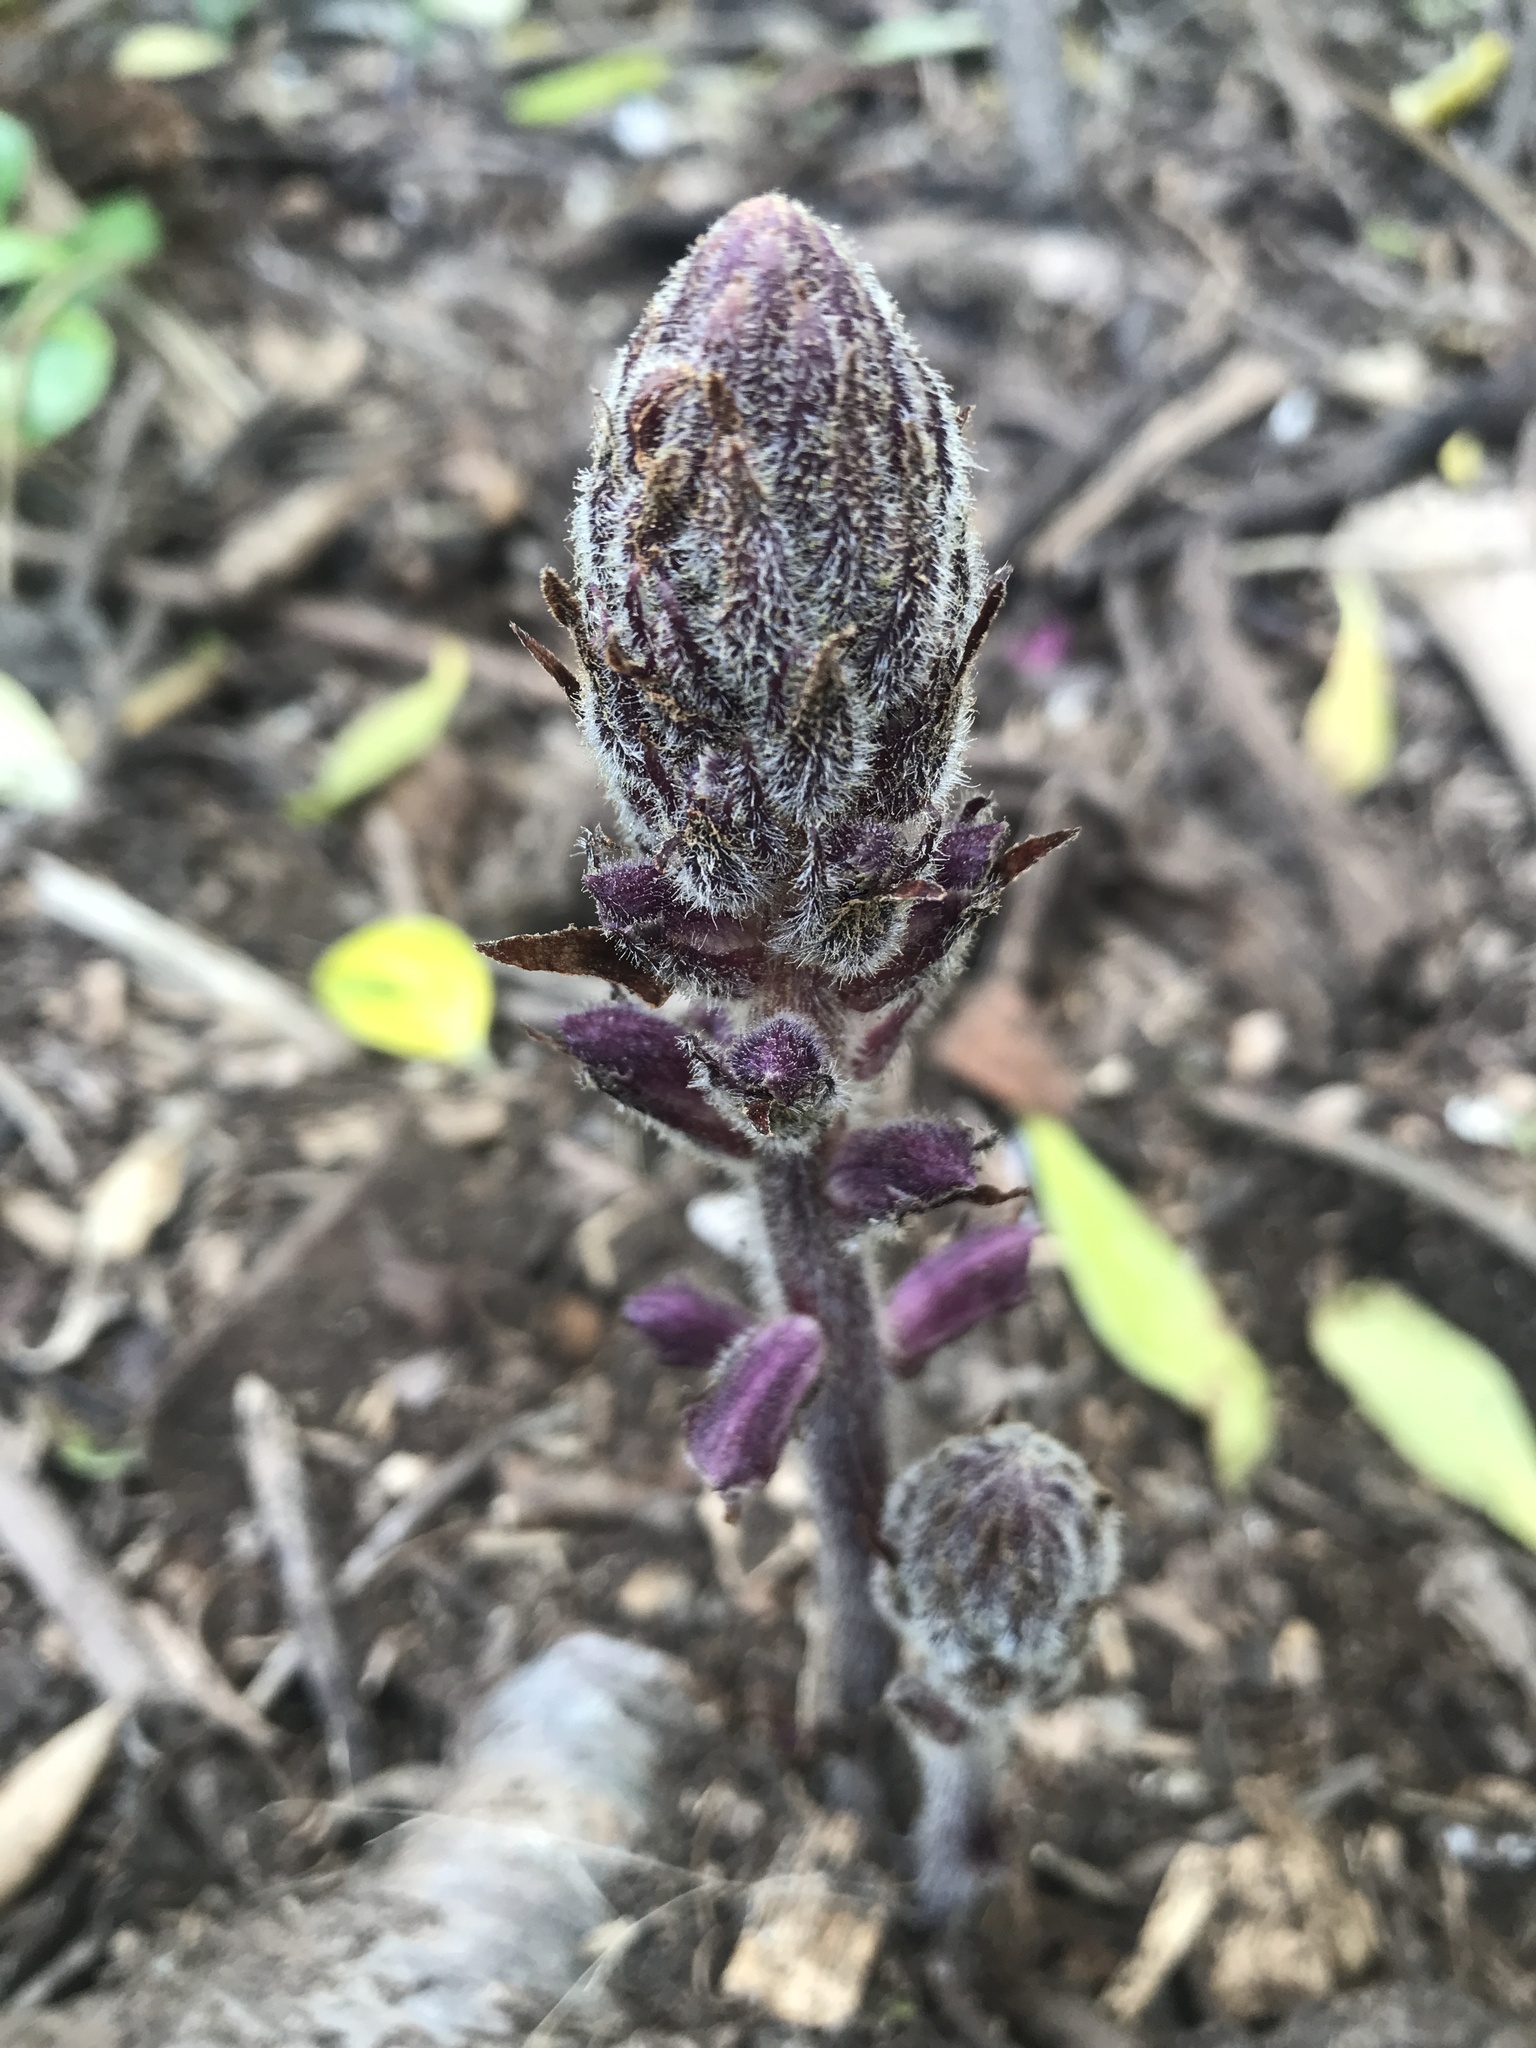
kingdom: Plantae
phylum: Tracheophyta
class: Magnoliopsida
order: Lamiales
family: Orobanchaceae
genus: Orobanche
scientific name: Orobanche minor
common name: Common broomrape
